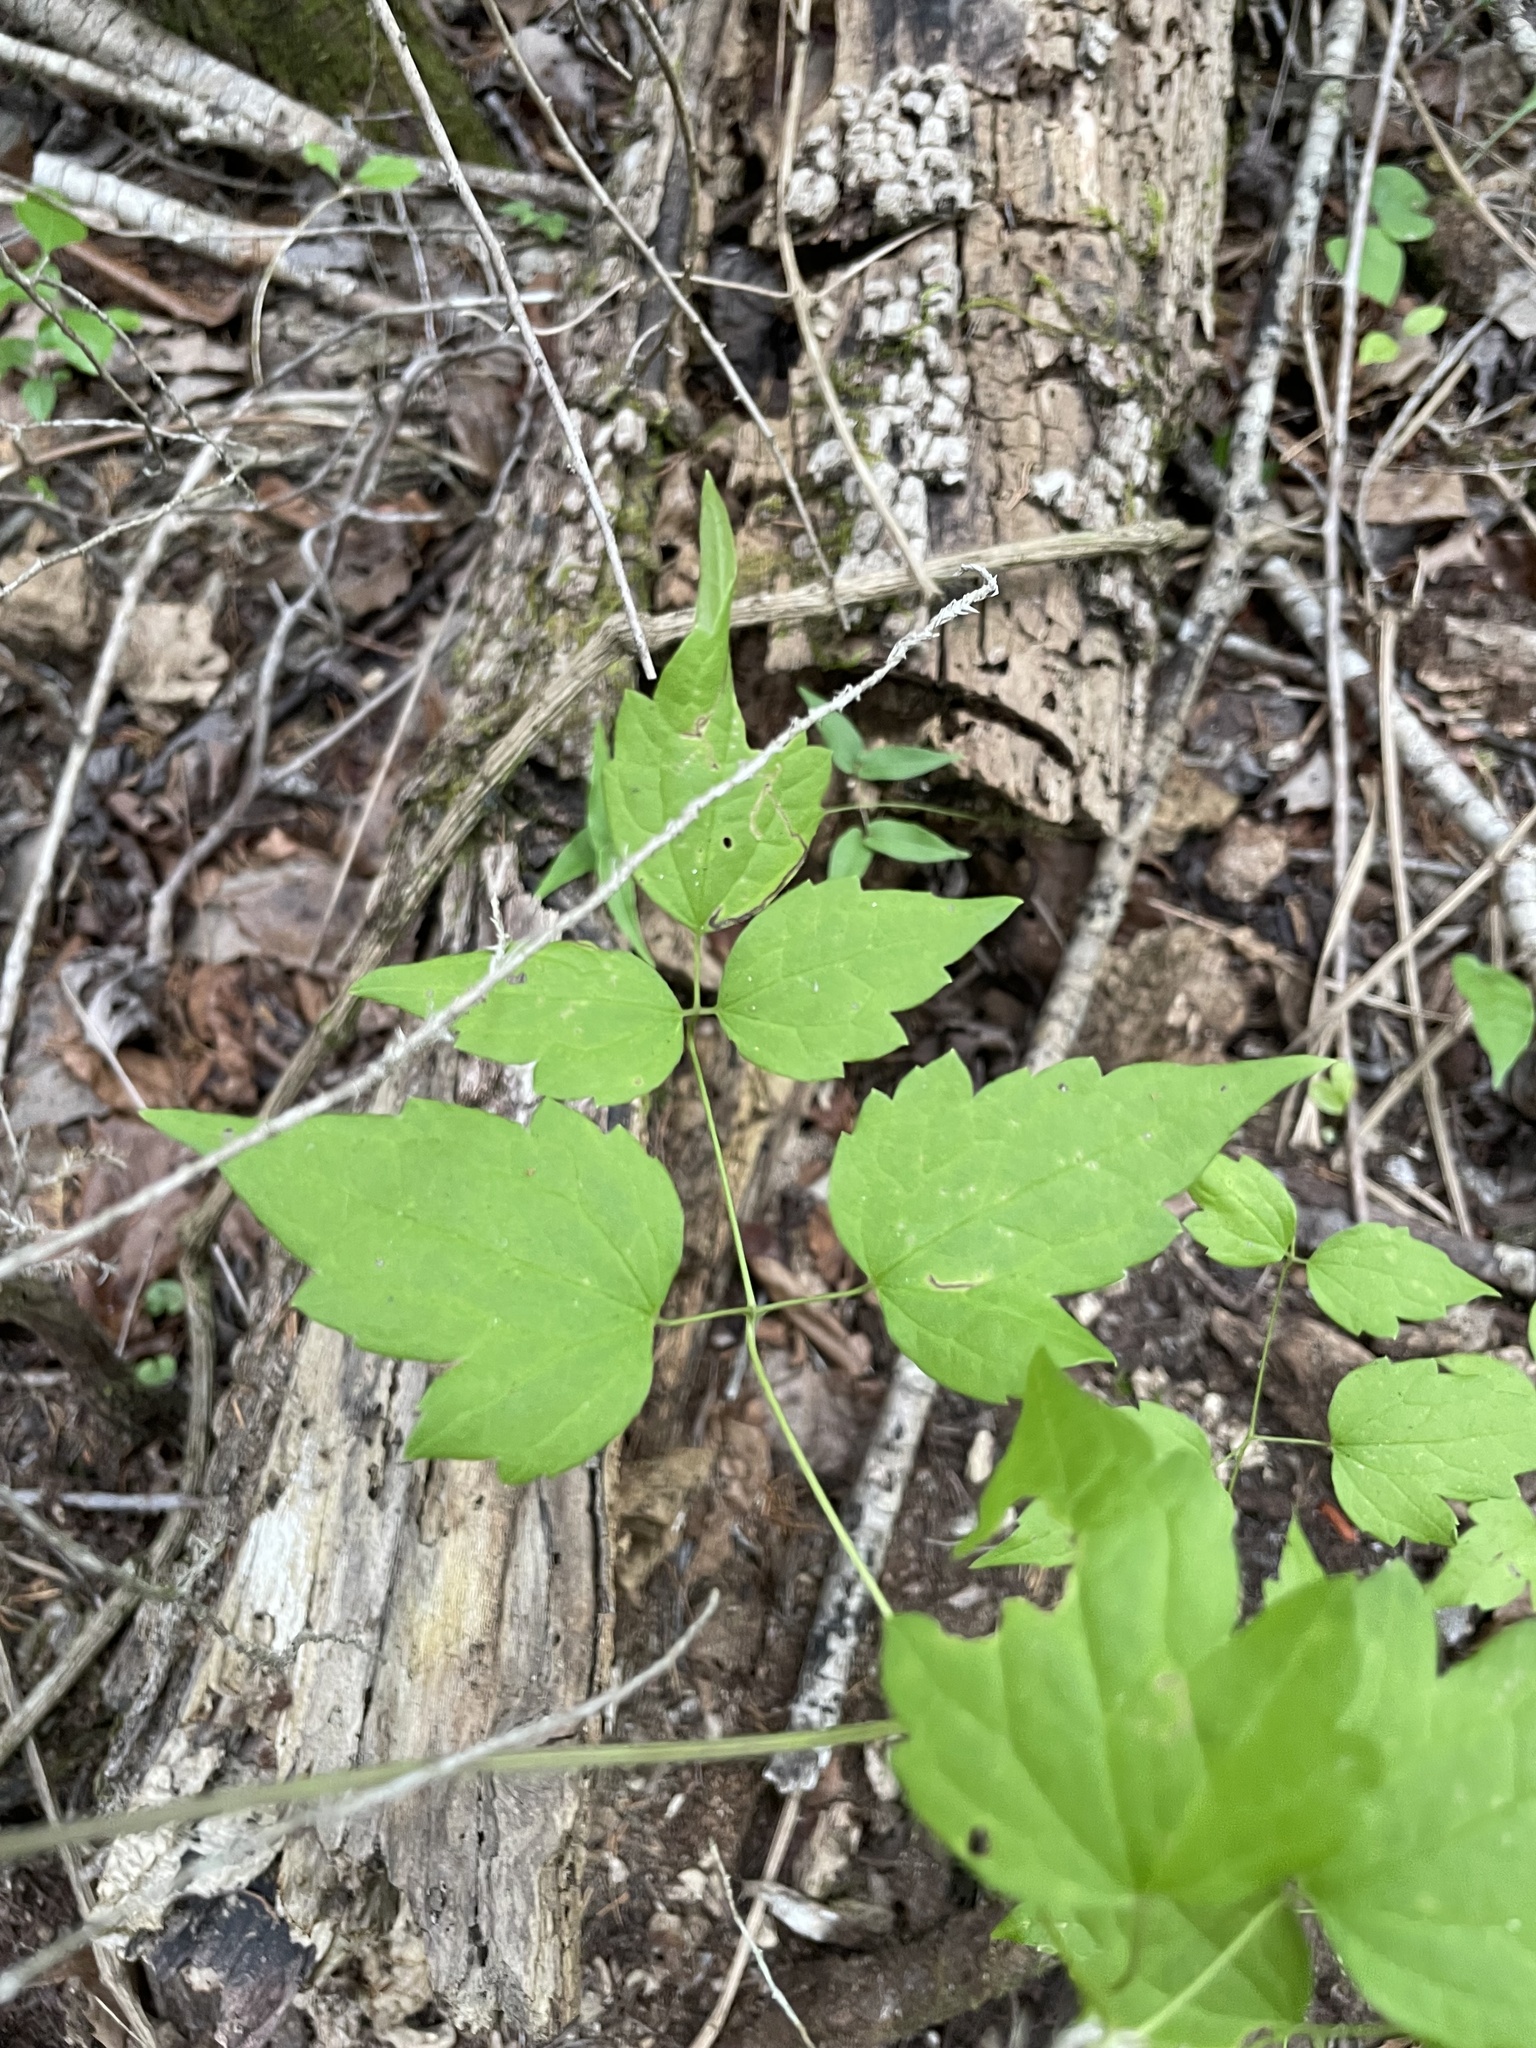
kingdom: Plantae
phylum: Tracheophyta
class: Magnoliopsida
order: Ranunculales
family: Ranunculaceae
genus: Clematis
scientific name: Clematis catesbyana
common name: Virgin's bower
